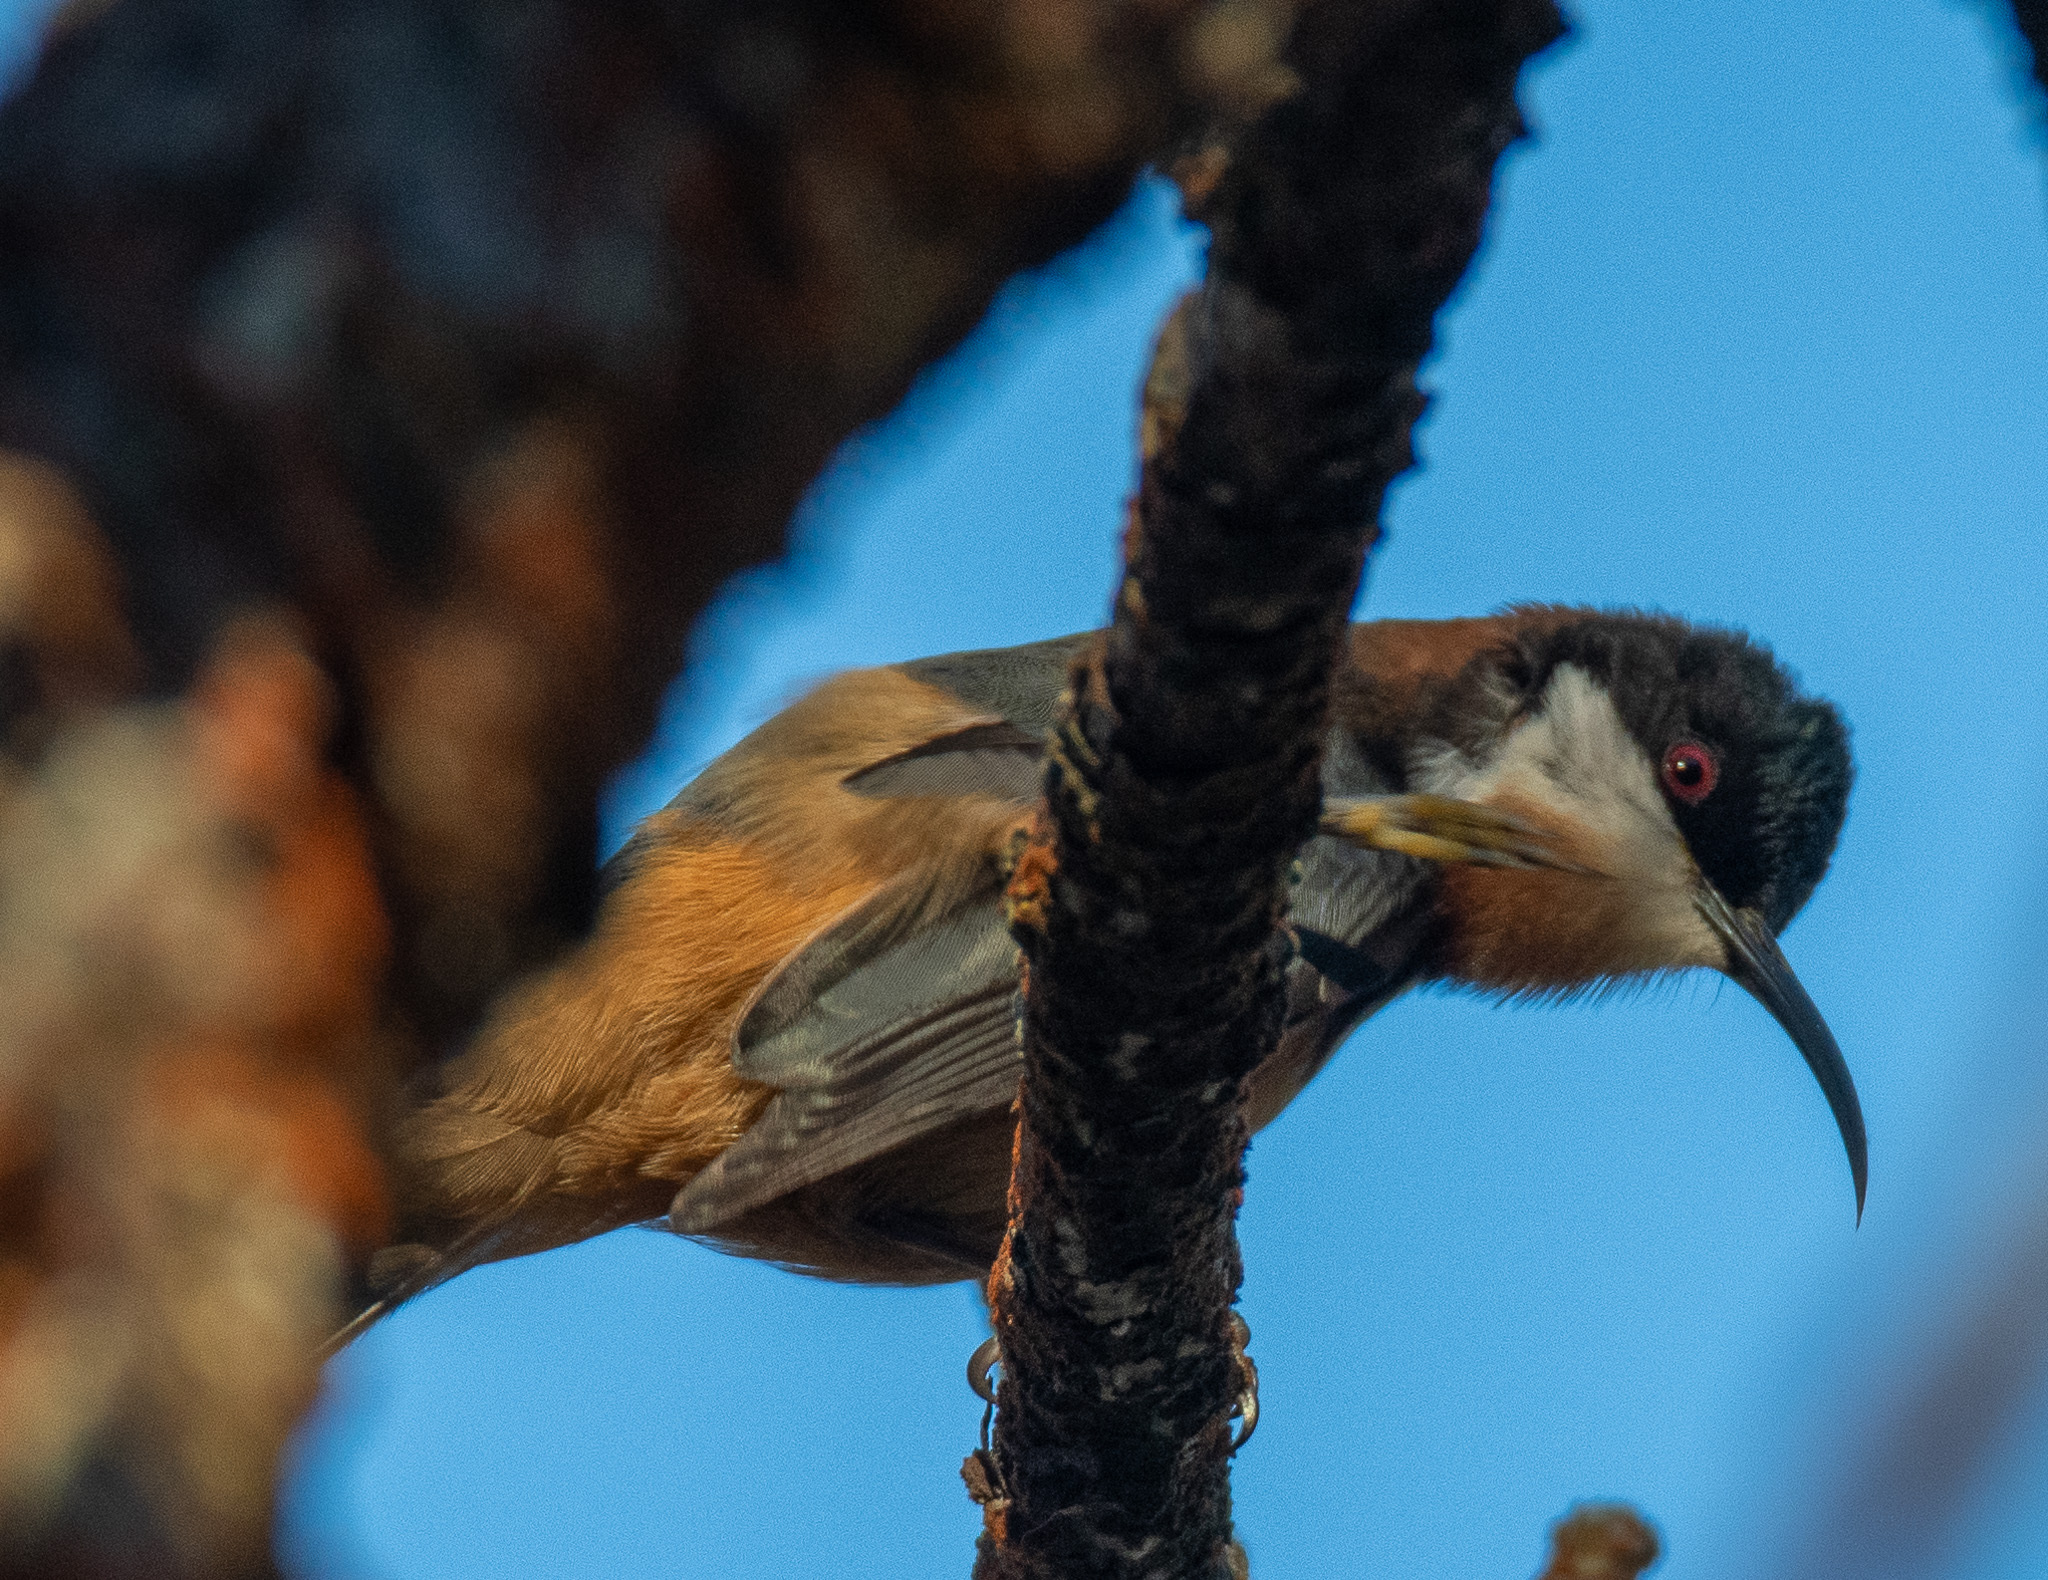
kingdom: Animalia
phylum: Chordata
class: Aves
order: Passeriformes
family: Meliphagidae
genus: Acanthorhynchus
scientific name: Acanthorhynchus tenuirostris
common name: Eastern spinebill
